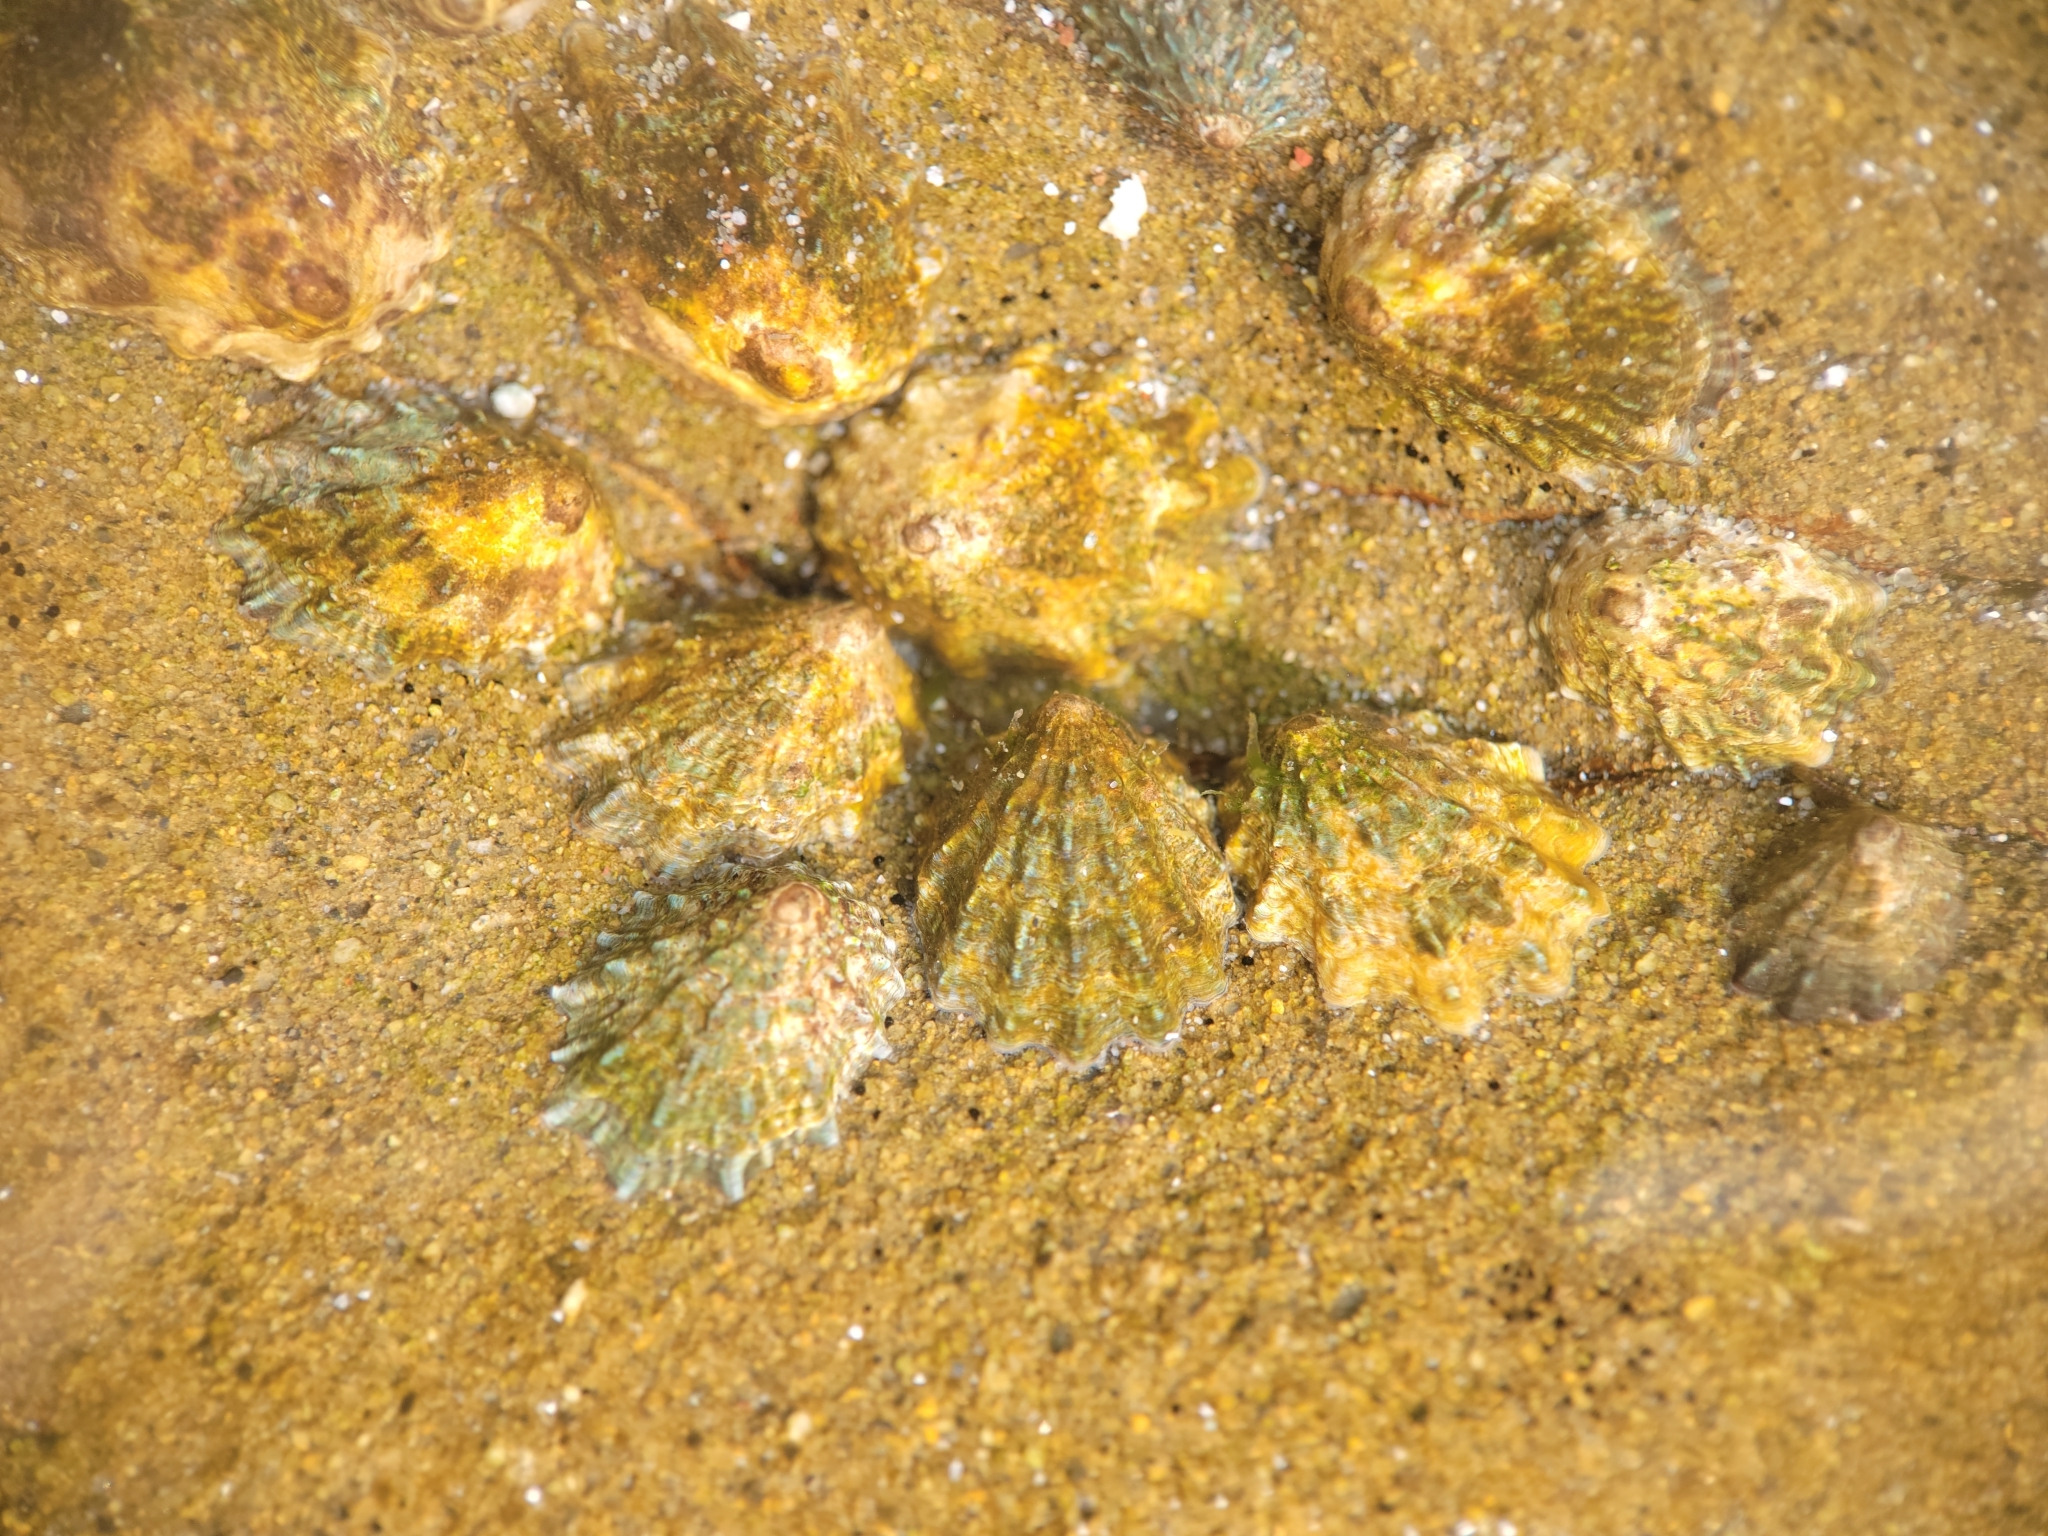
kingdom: Animalia
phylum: Mollusca
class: Gastropoda
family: Lottiidae
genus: Lottia
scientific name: Lottia scabra
